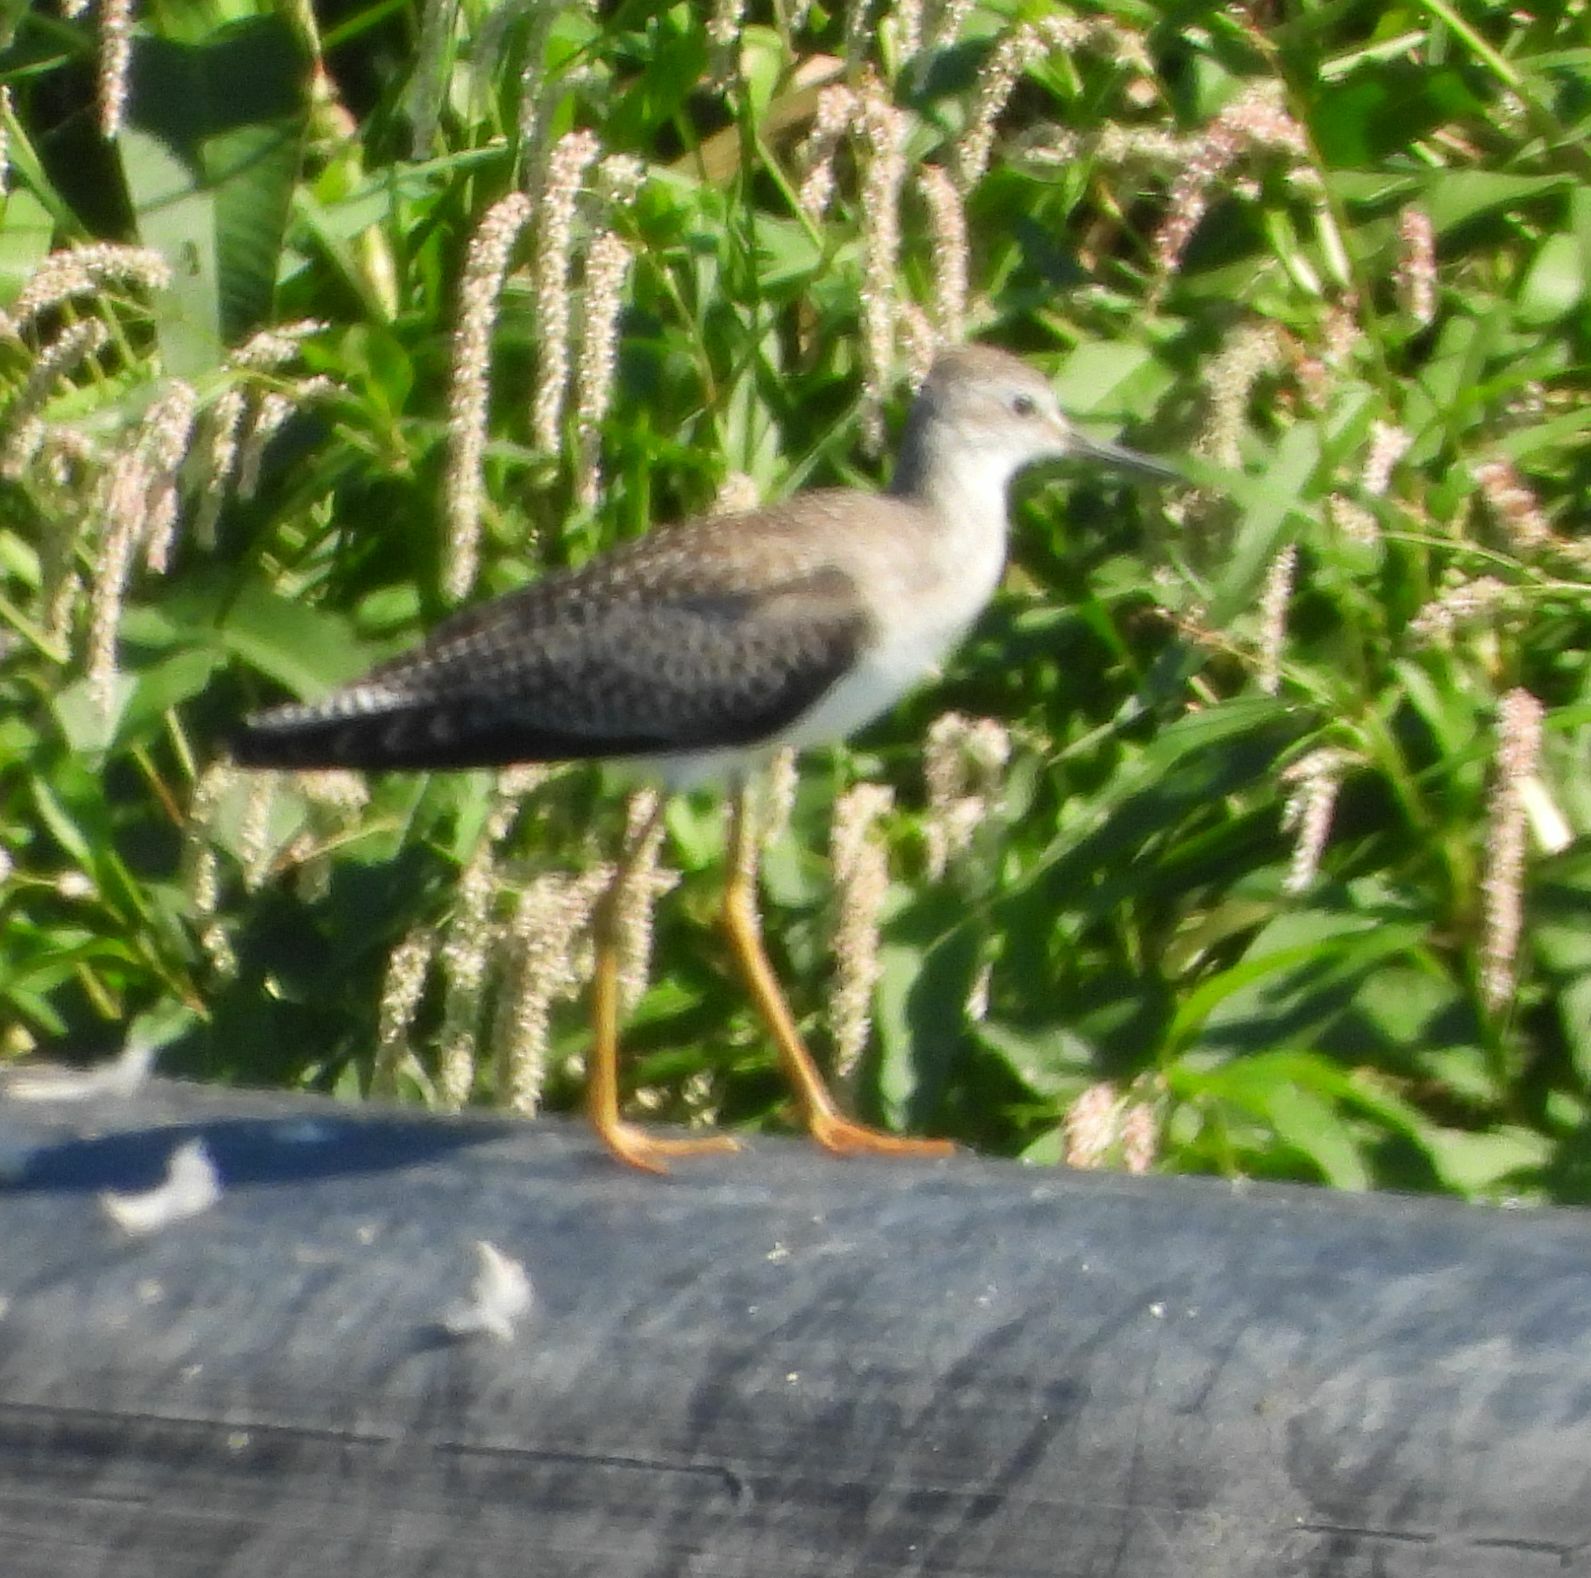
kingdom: Animalia
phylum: Chordata
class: Aves
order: Charadriiformes
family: Scolopacidae
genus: Tringa
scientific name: Tringa flavipes
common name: Lesser yellowlegs
